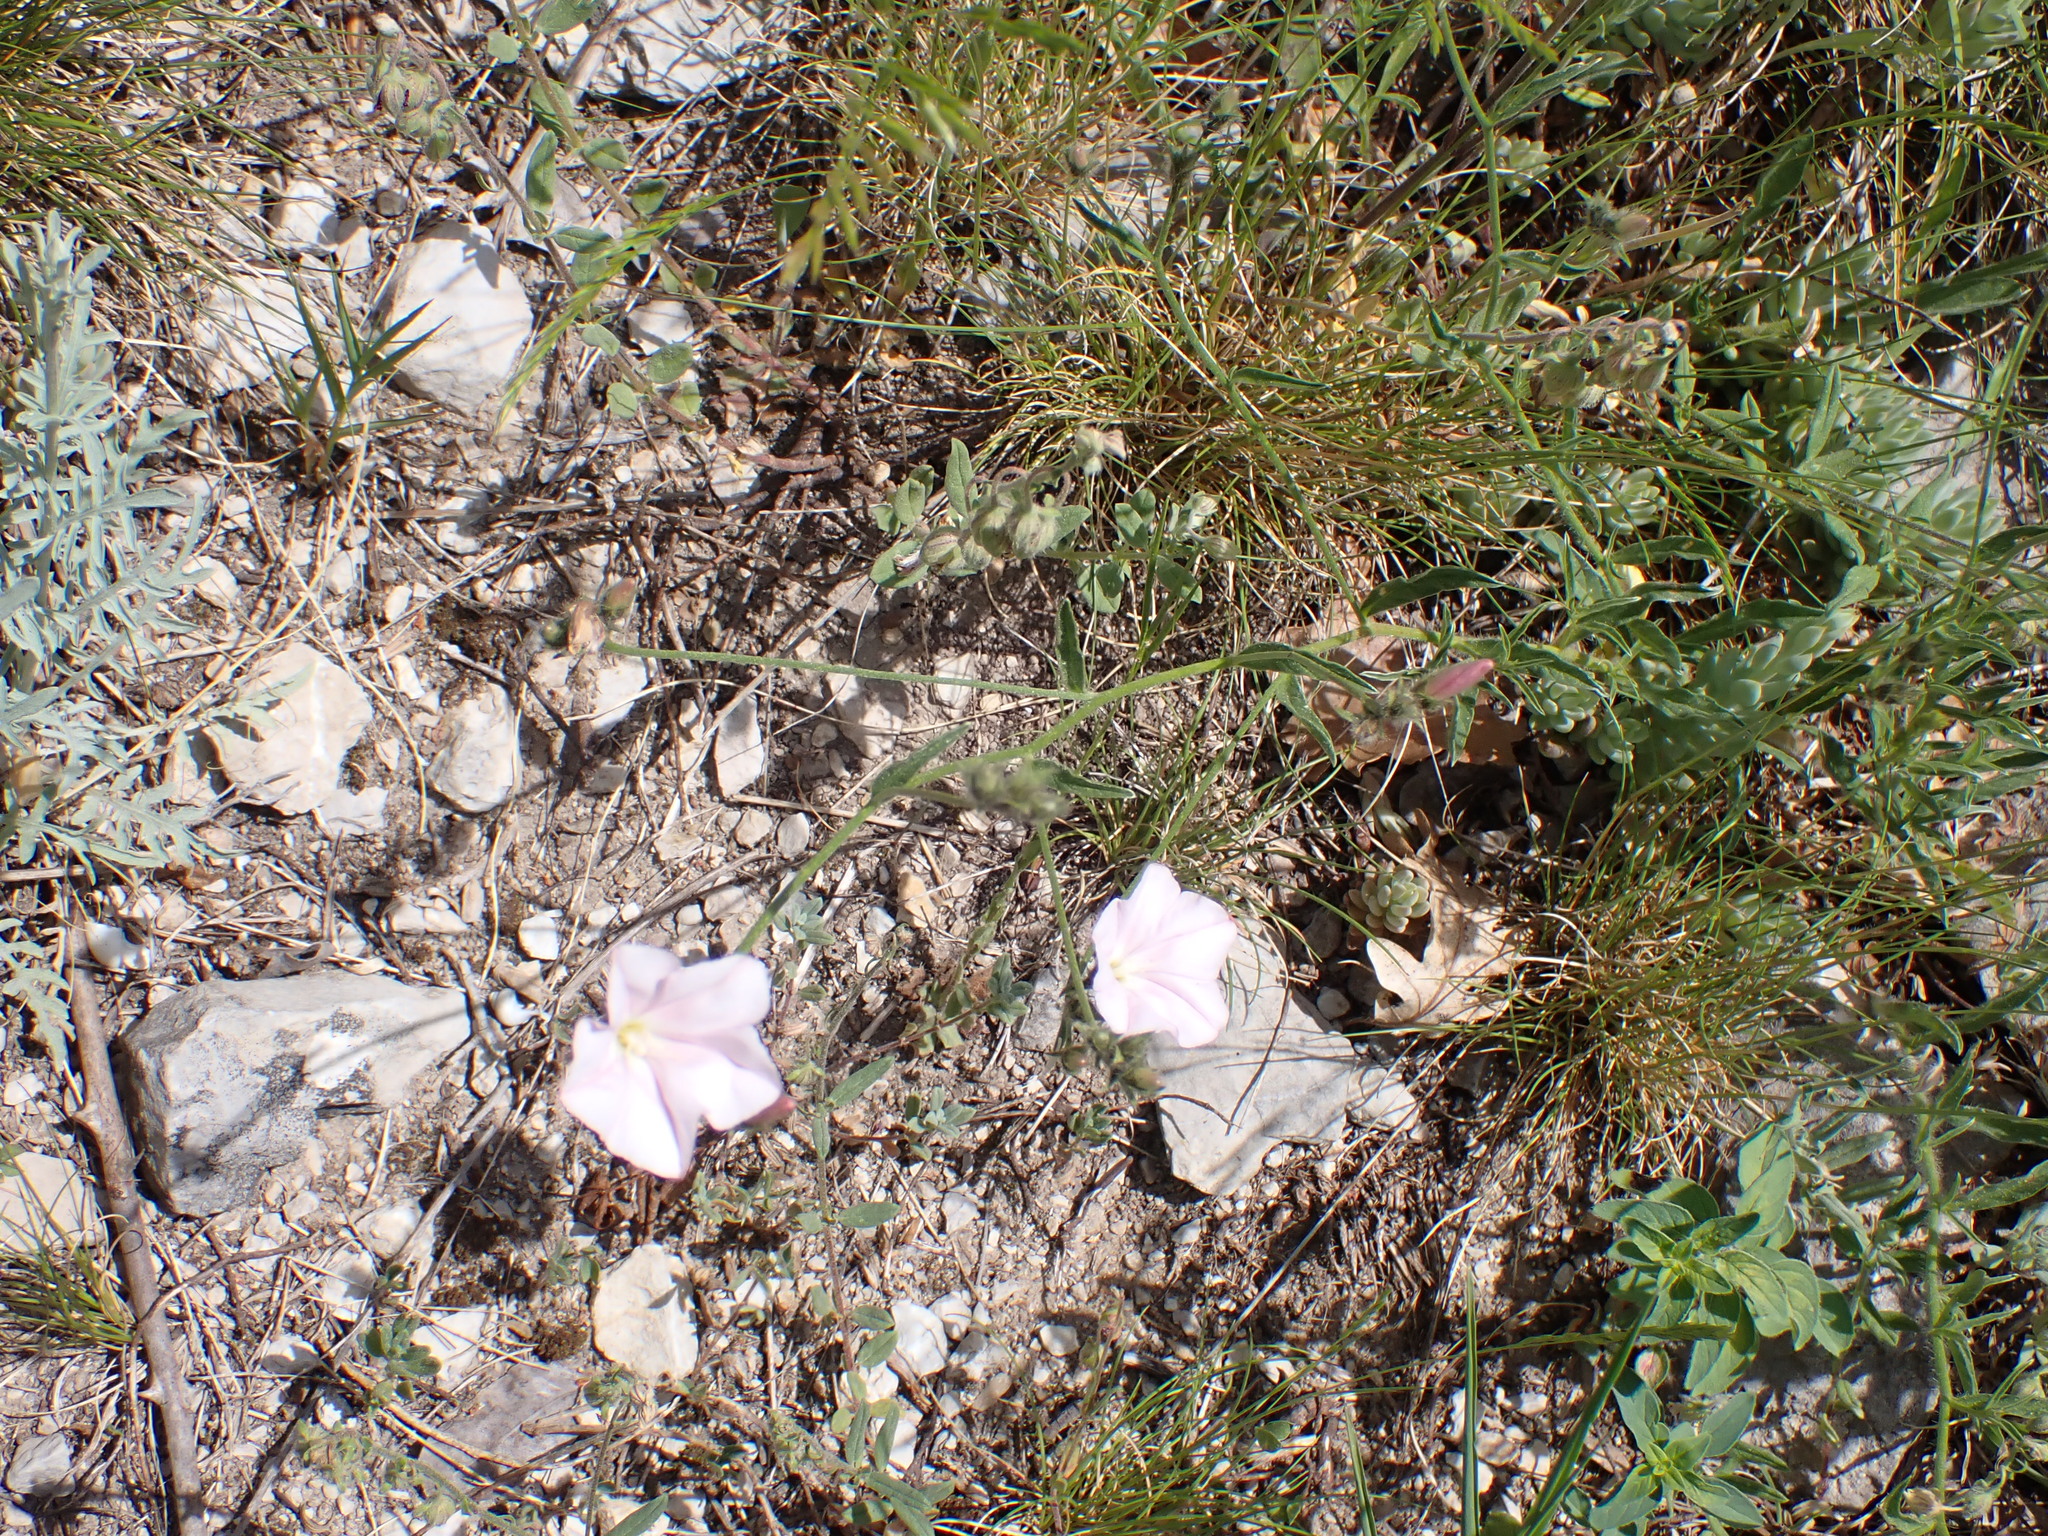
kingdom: Plantae
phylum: Tracheophyta
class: Magnoliopsida
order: Solanales
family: Convolvulaceae
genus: Convolvulus
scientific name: Convolvulus cantabrica
